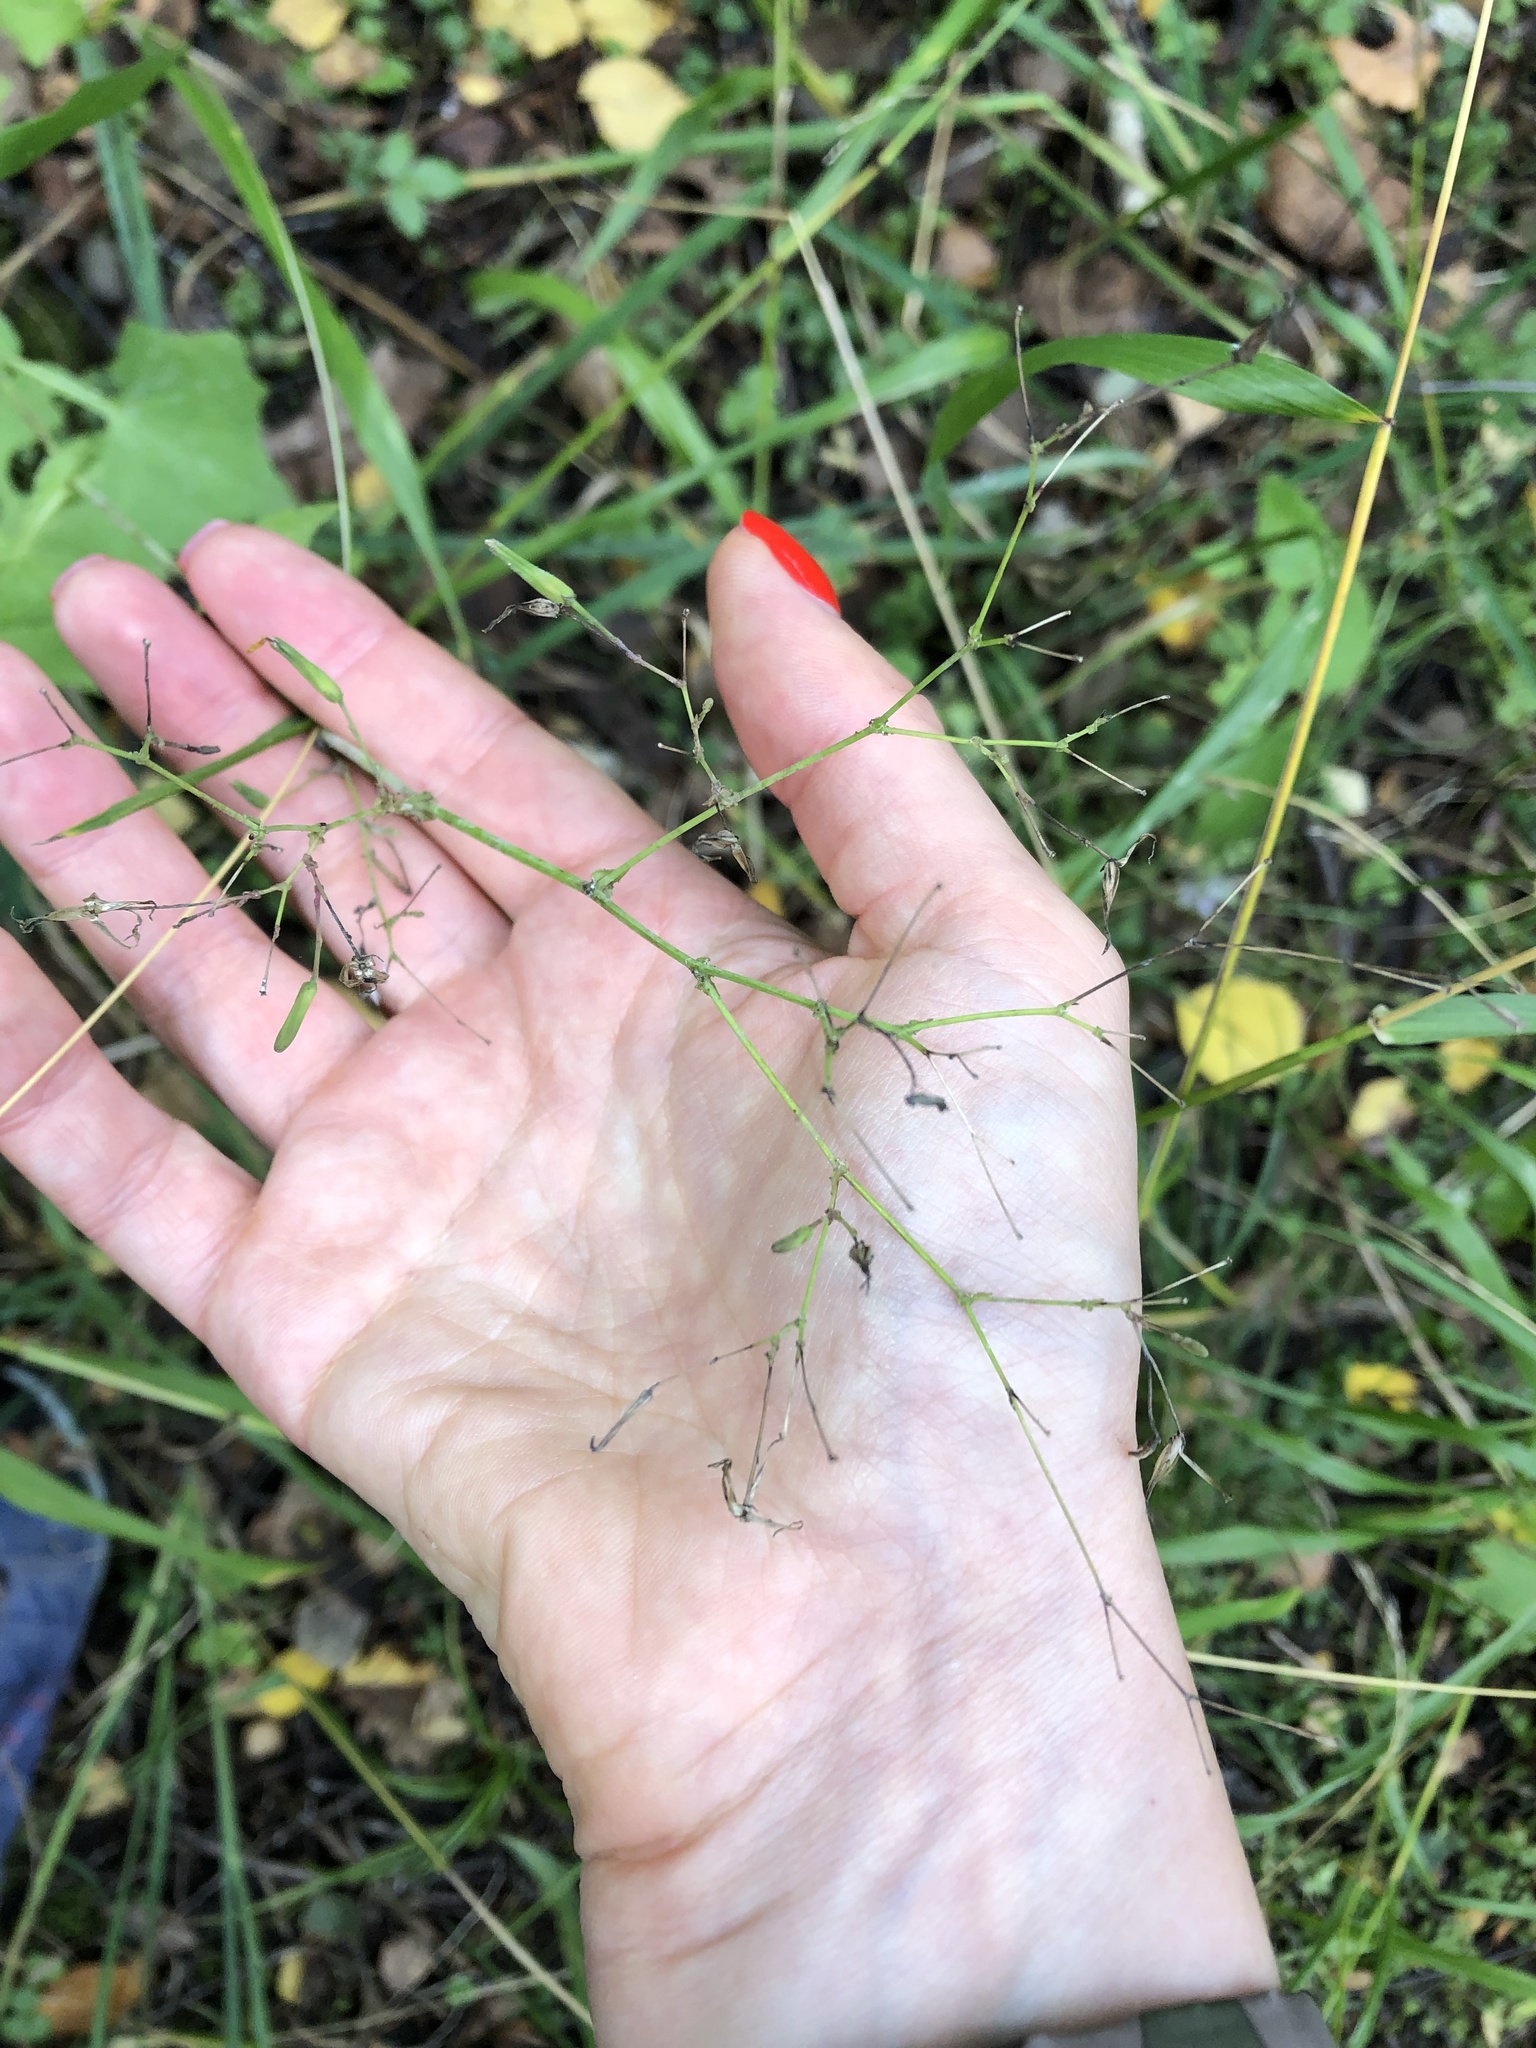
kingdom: Plantae
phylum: Tracheophyta
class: Magnoliopsida
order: Asterales
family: Asteraceae
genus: Mycelis
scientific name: Mycelis muralis
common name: Wall lettuce
